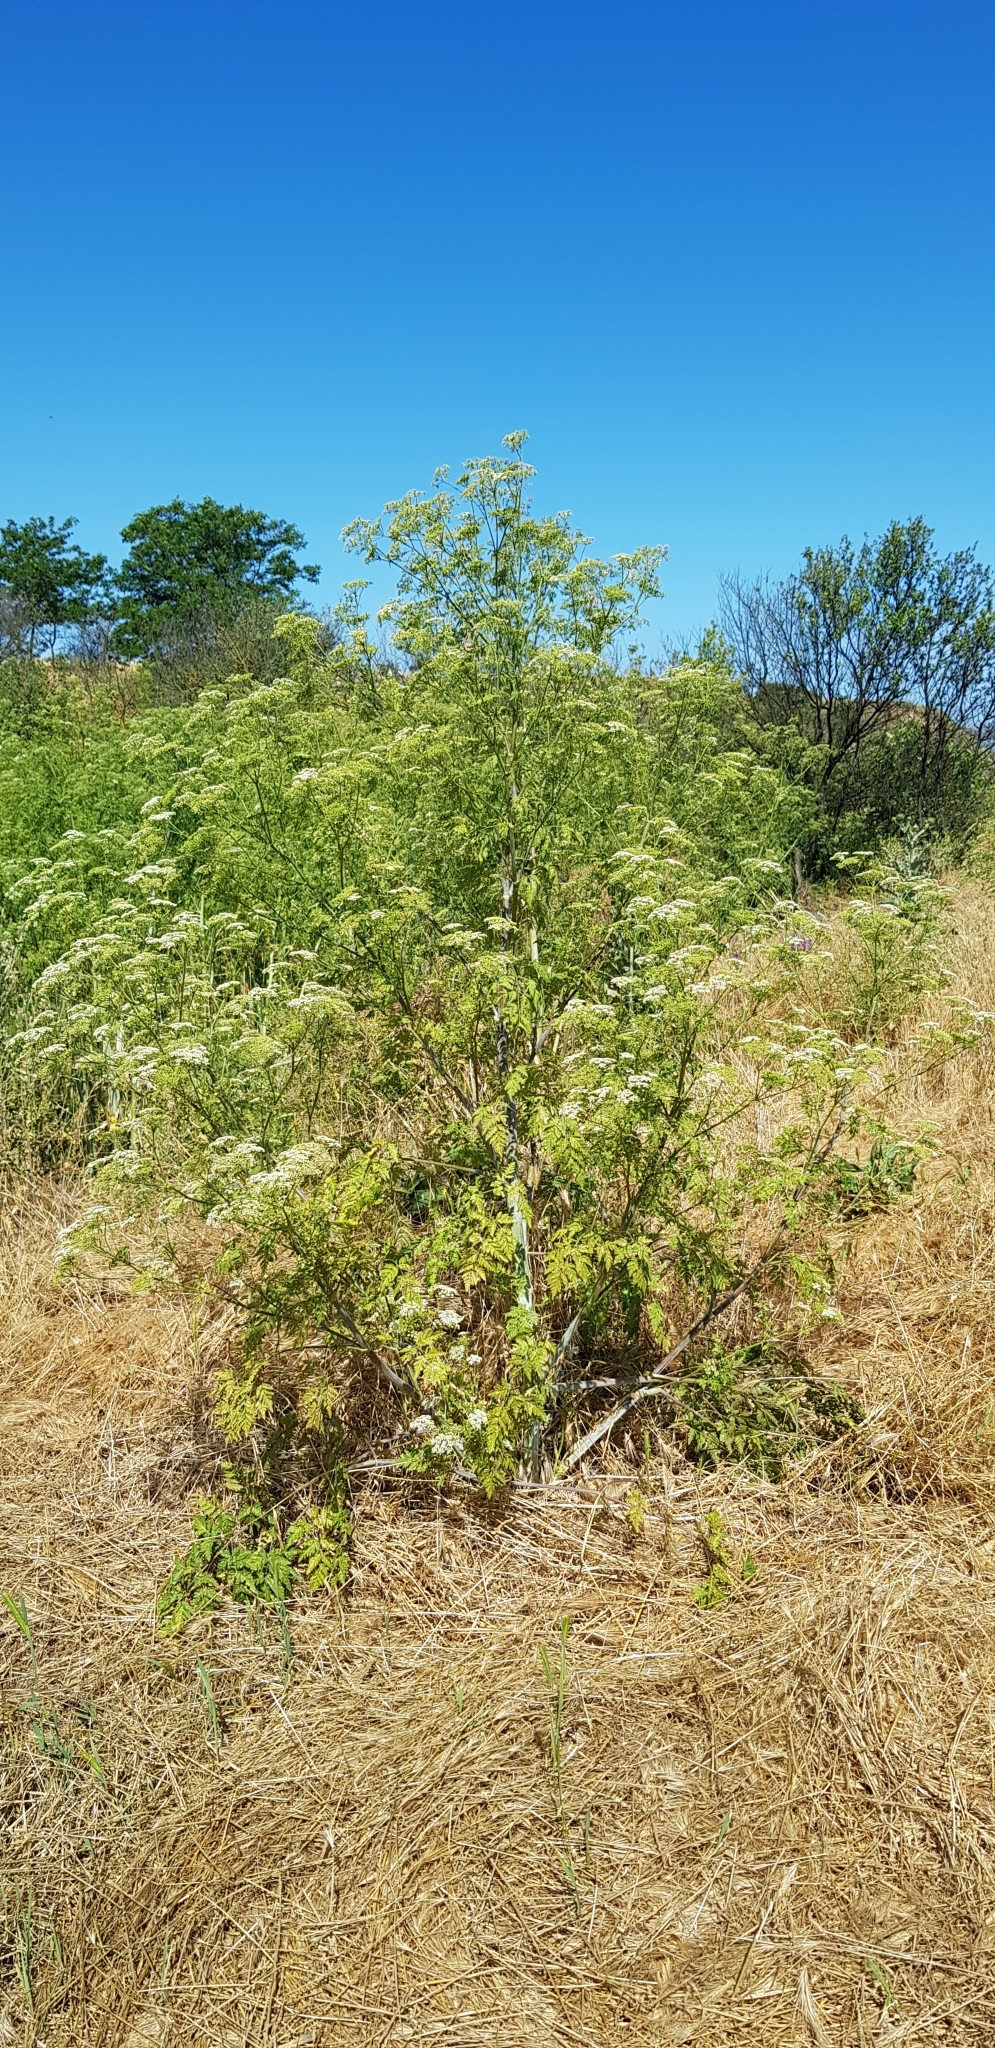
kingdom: Plantae
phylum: Tracheophyta
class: Magnoliopsida
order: Apiales
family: Apiaceae
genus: Conium
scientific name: Conium maculatum
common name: Hemlock
